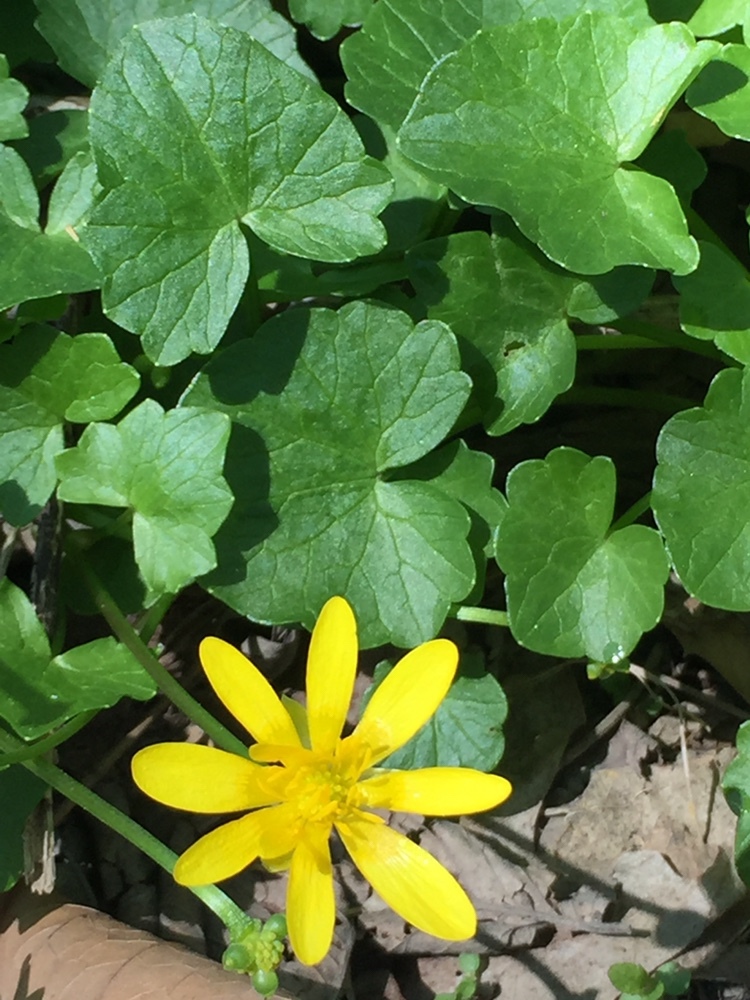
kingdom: Plantae
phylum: Tracheophyta
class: Magnoliopsida
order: Ranunculales
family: Ranunculaceae
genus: Ficaria
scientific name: Ficaria verna
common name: Lesser celandine
